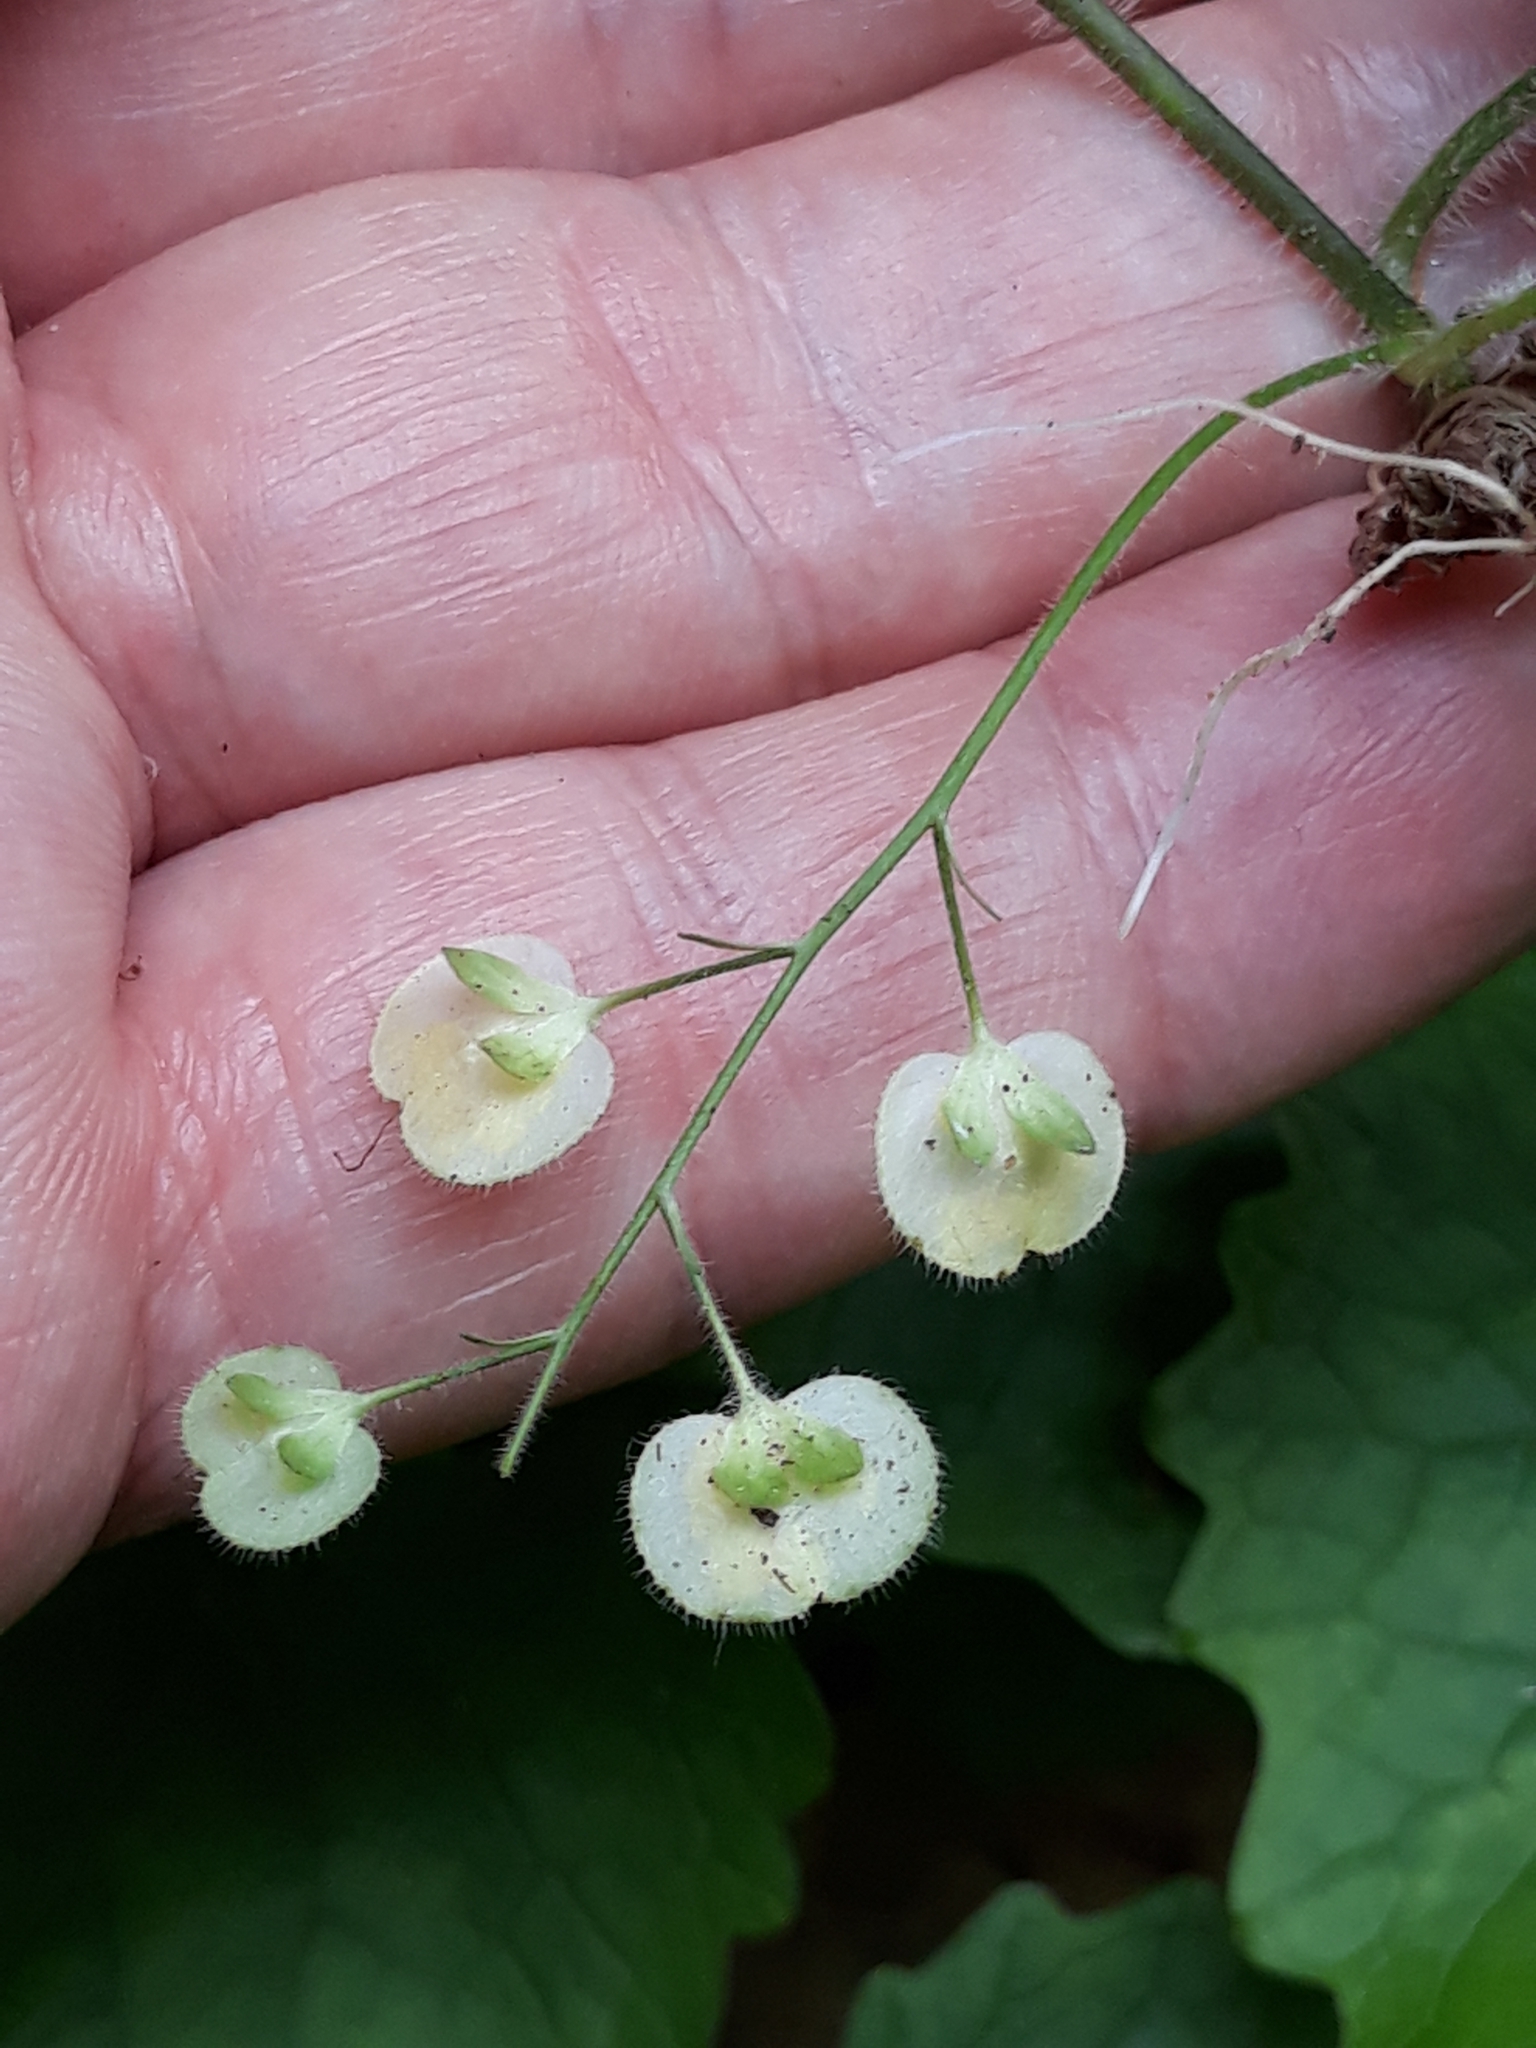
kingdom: Plantae
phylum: Tracheophyta
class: Magnoliopsida
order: Lamiales
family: Plantaginaceae
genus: Veronica
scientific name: Veronica montana
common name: Wood speedwell
